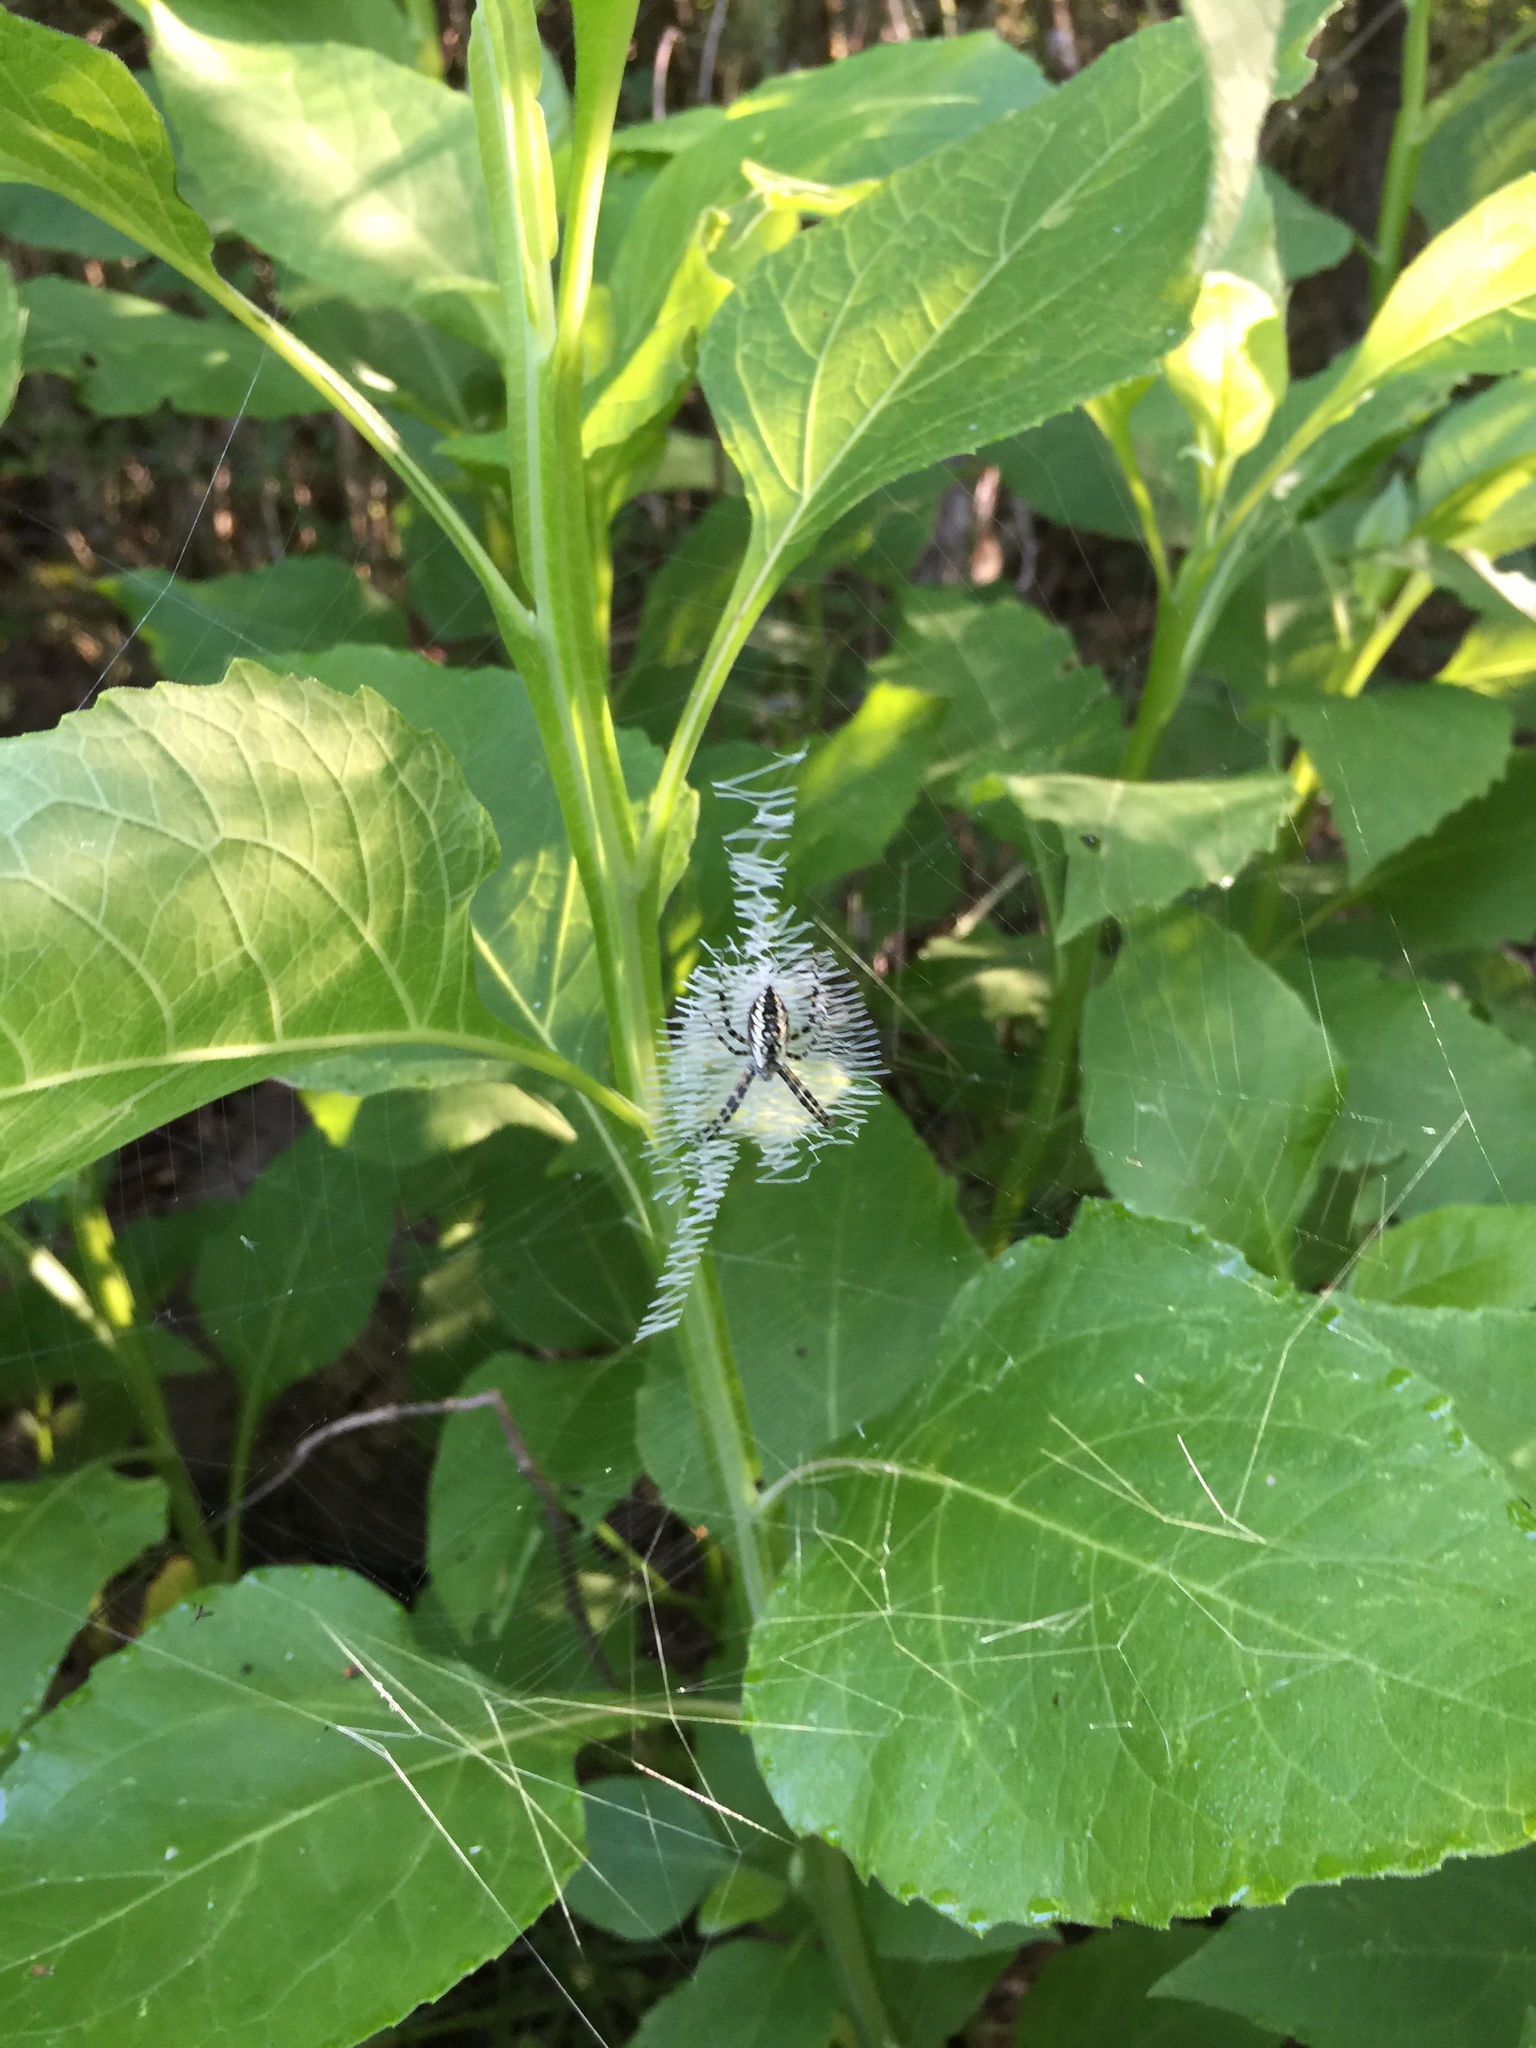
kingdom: Animalia
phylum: Arthropoda
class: Arachnida
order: Araneae
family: Araneidae
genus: Argiope
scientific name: Argiope aurantia
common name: Orb weavers
